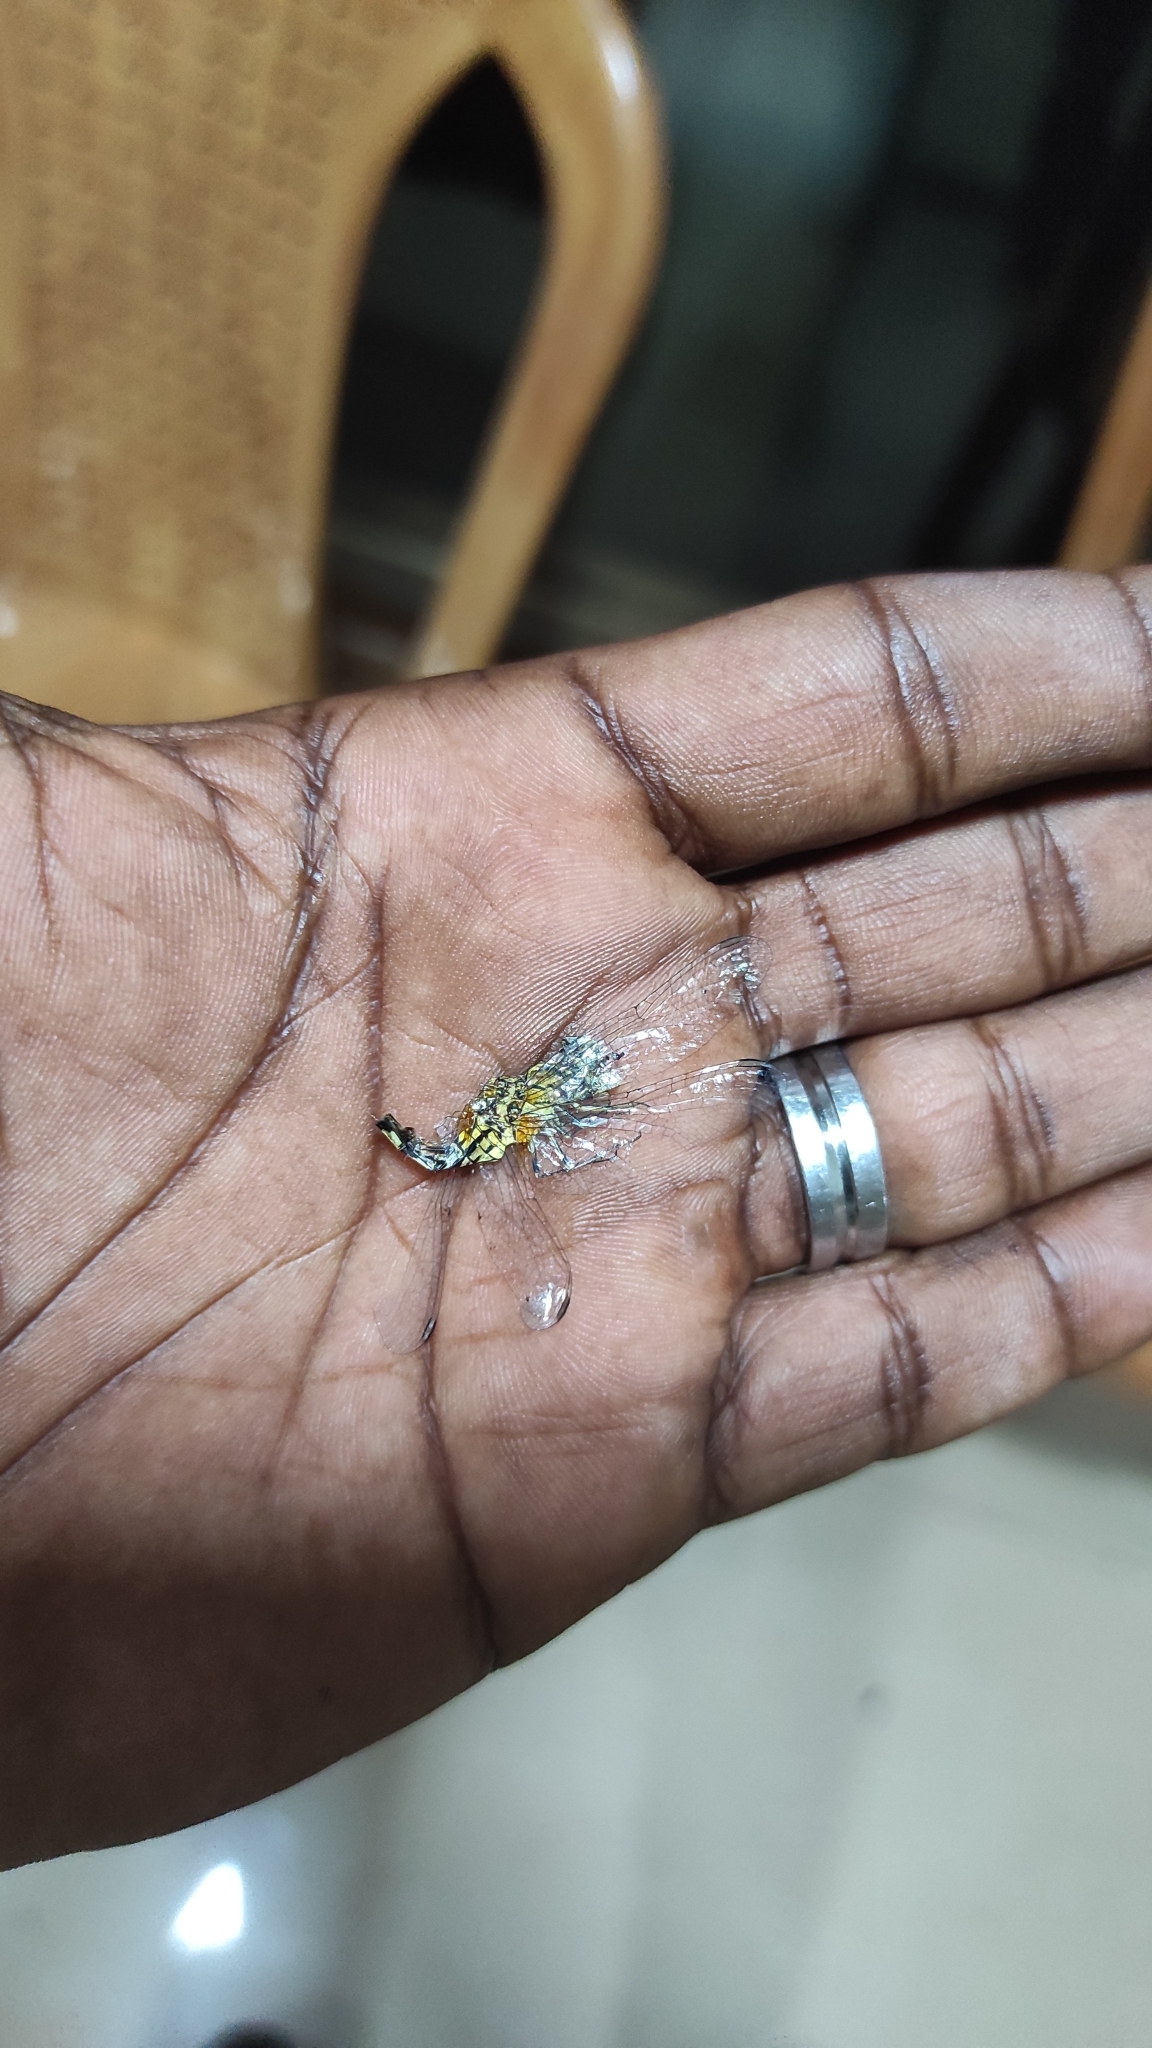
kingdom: Animalia
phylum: Arthropoda
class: Insecta
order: Odonata
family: Libellulidae
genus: Acisoma
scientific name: Acisoma panorpoides
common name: Asian pintail
